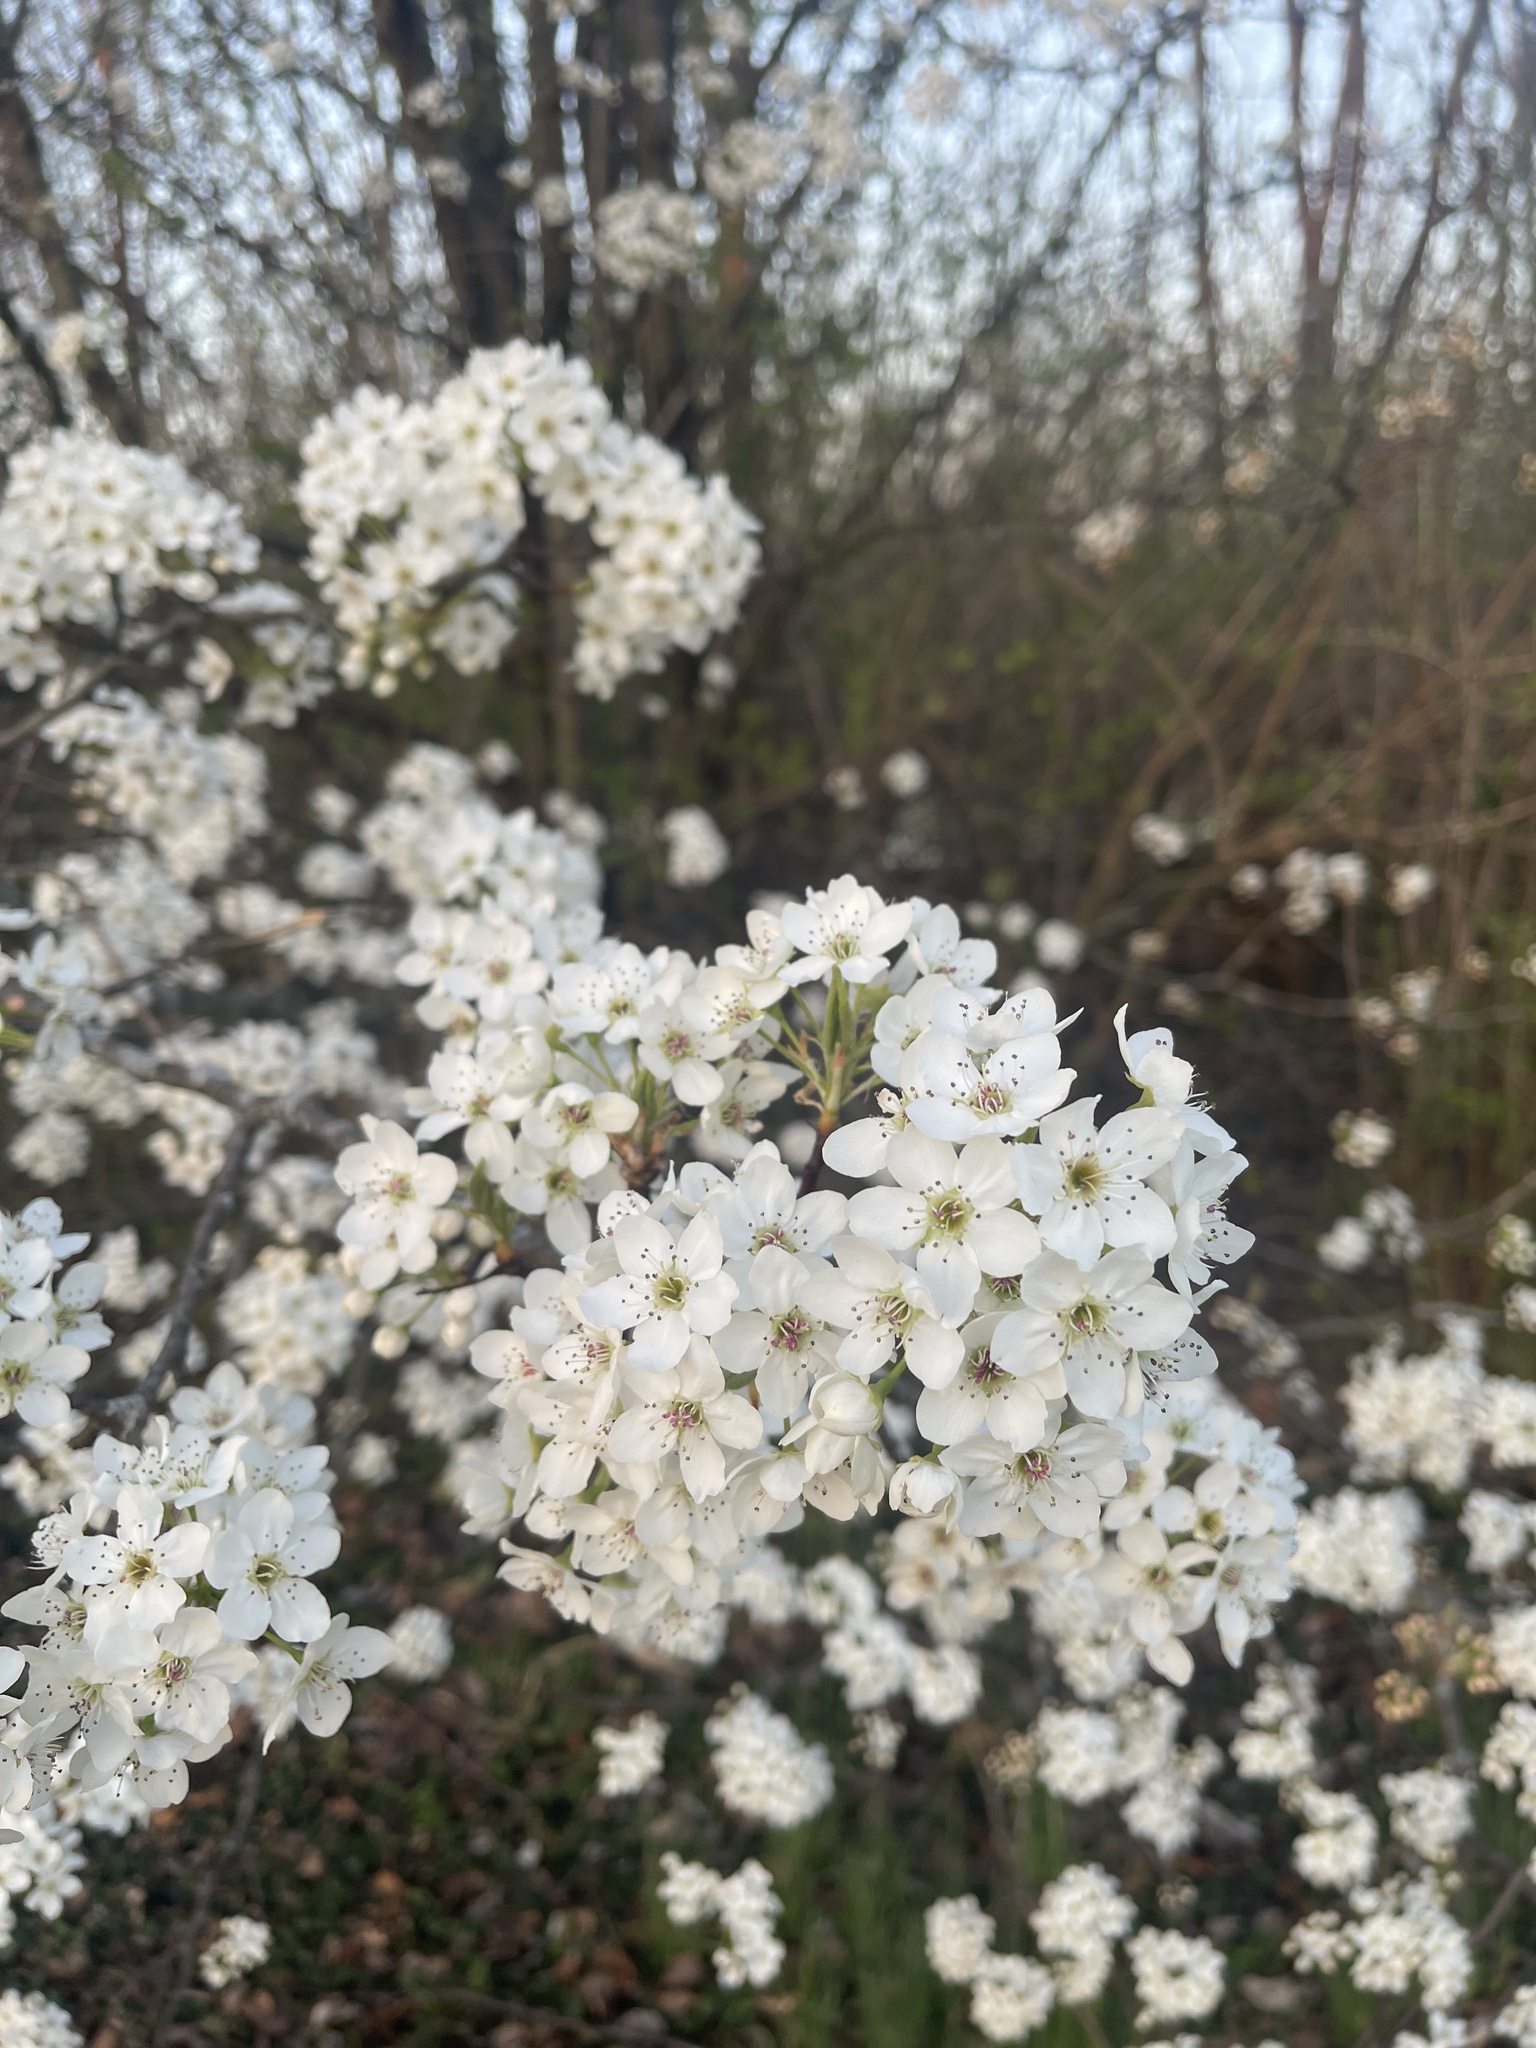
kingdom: Plantae
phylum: Tracheophyta
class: Magnoliopsida
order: Rosales
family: Rosaceae
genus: Pyrus
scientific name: Pyrus calleryana
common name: Callery pear
